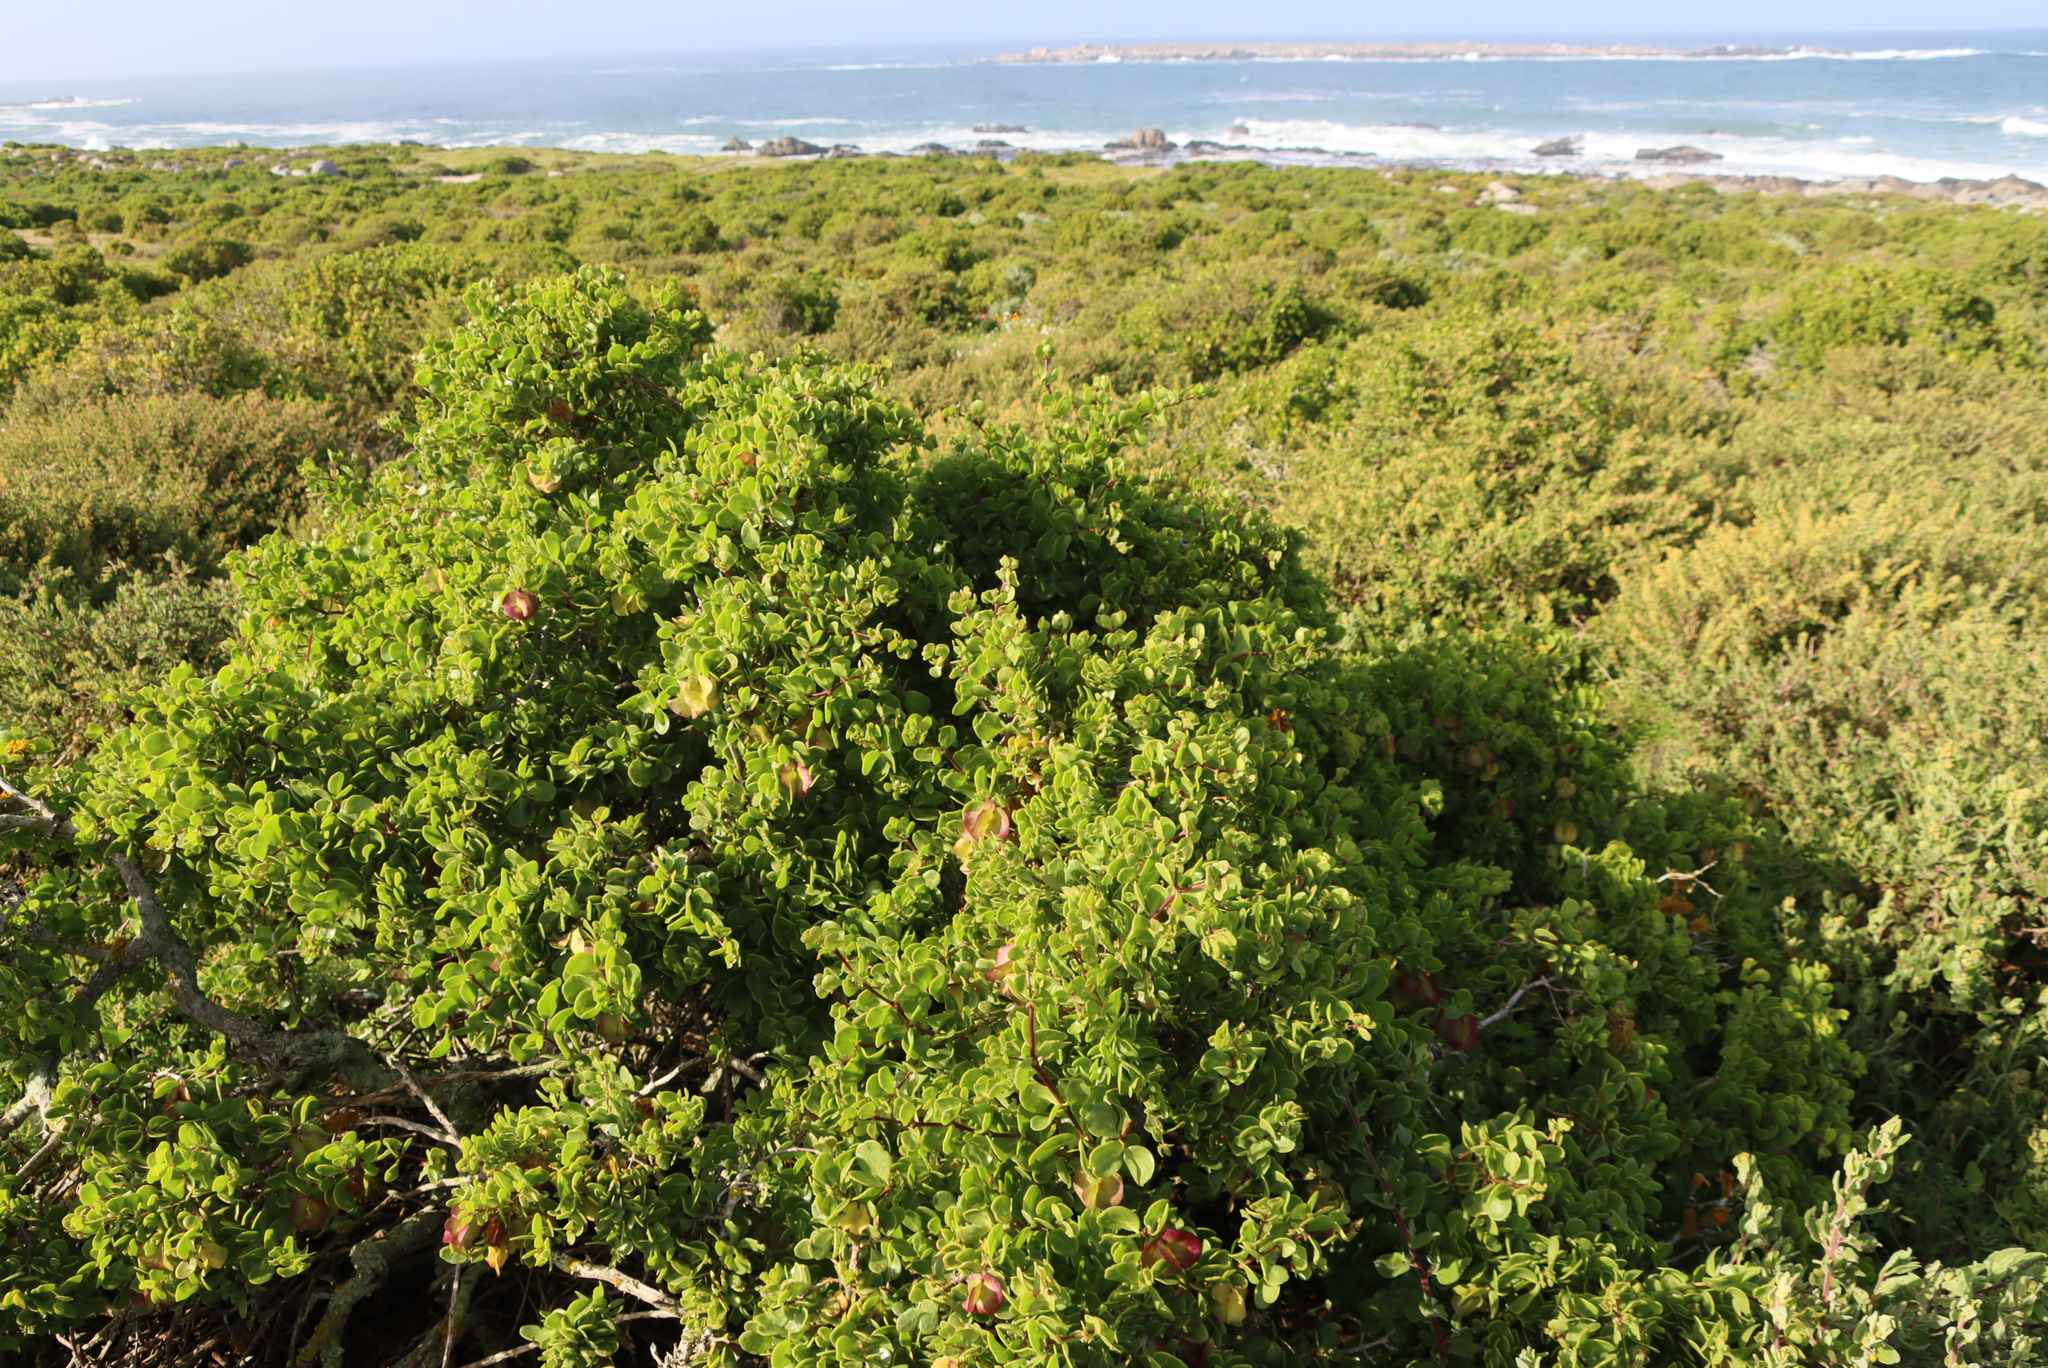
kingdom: Plantae
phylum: Tracheophyta
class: Magnoliopsida
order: Zygophyllales
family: Zygophyllaceae
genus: Roepera
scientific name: Roepera morgsana
